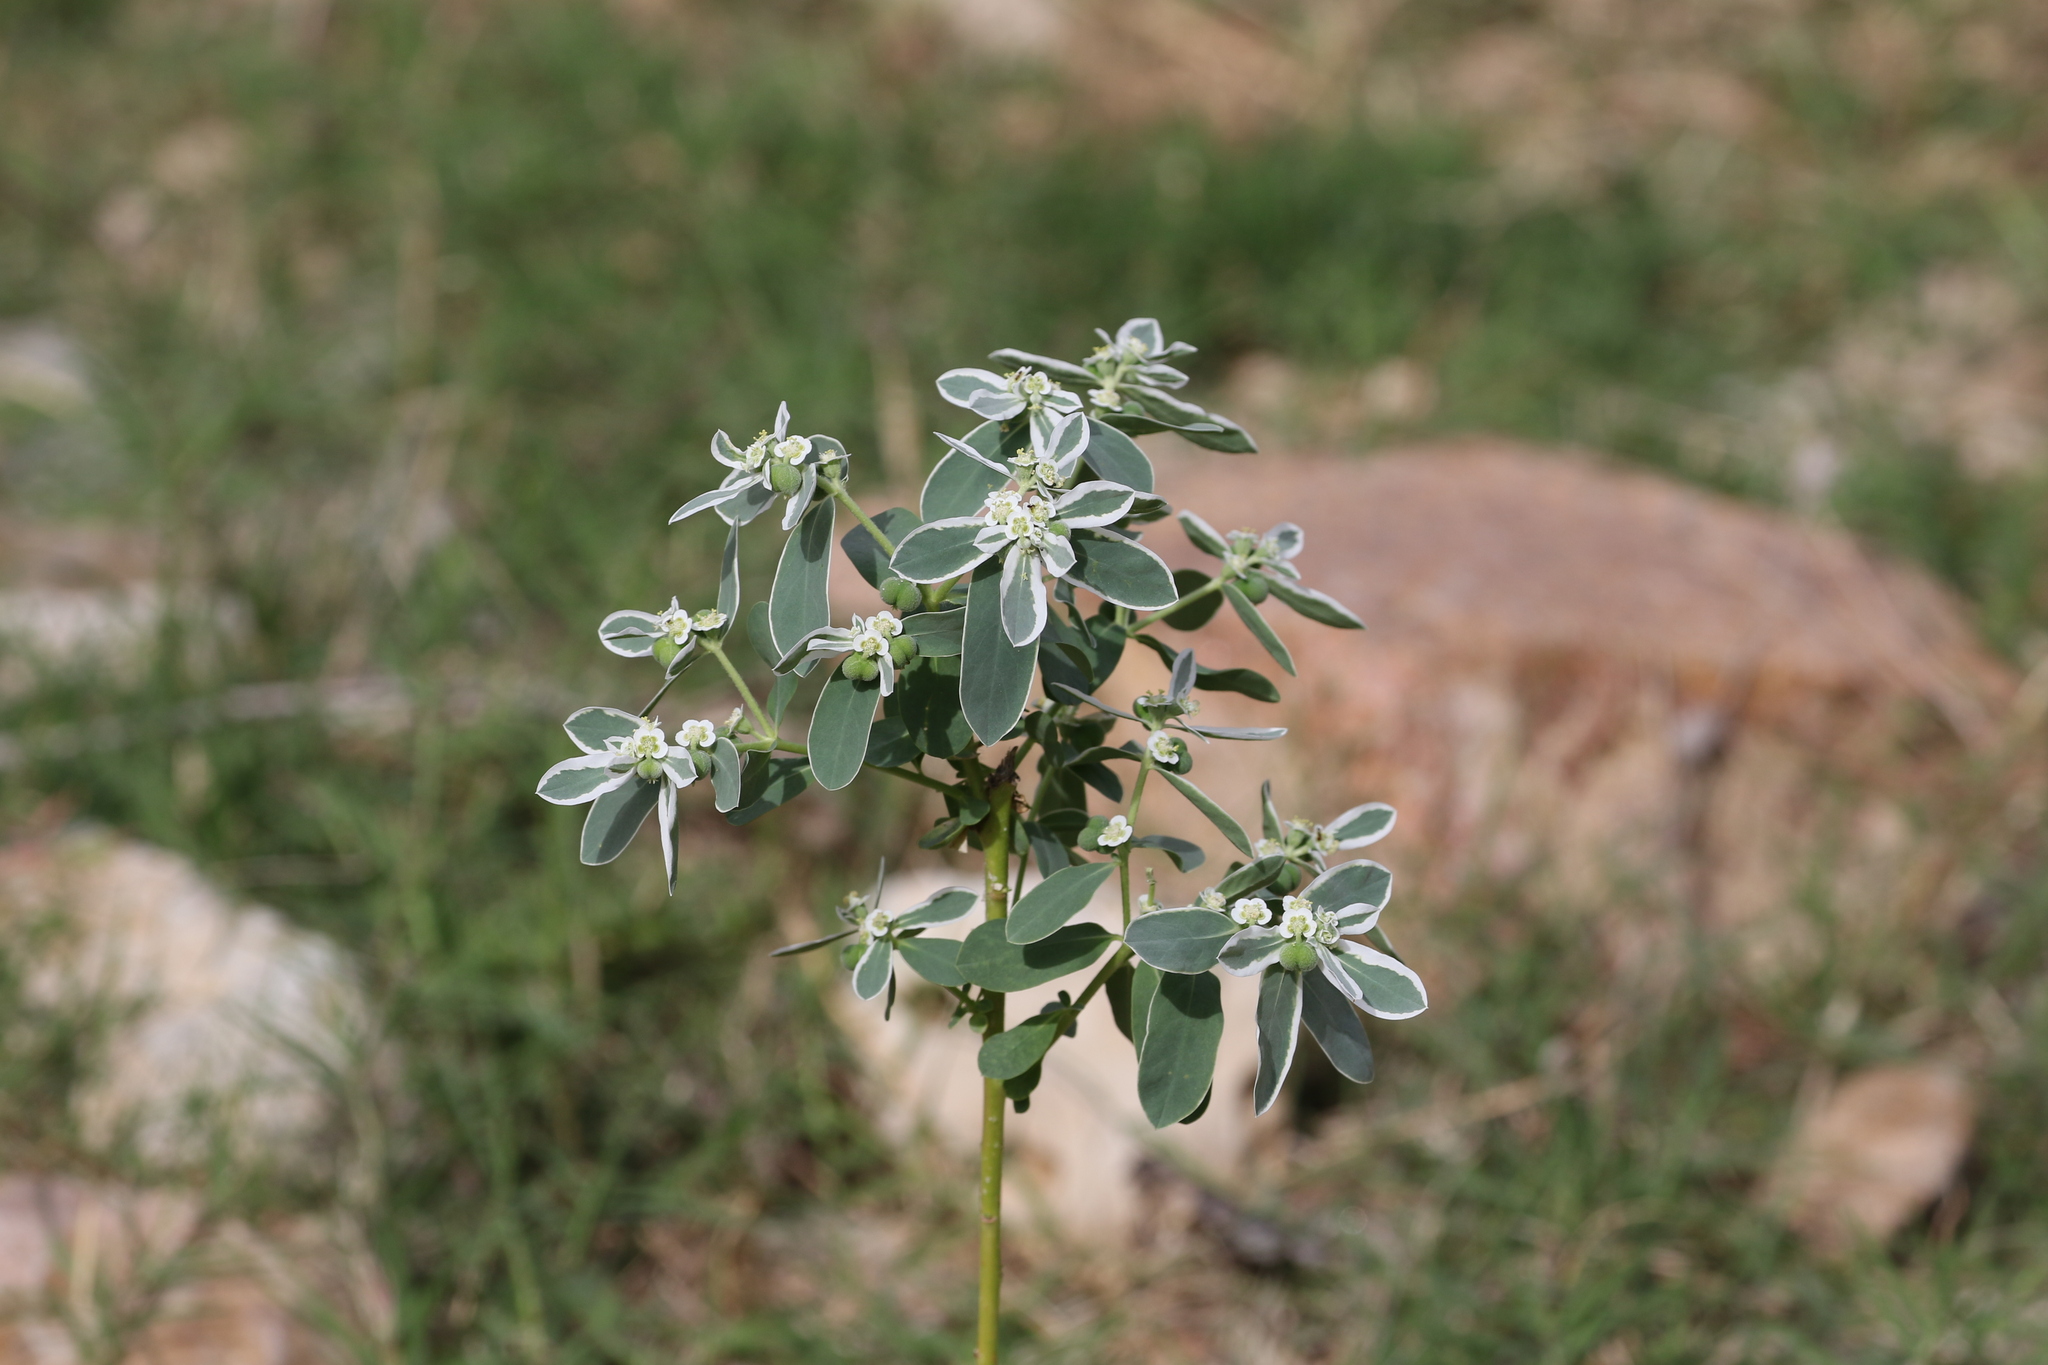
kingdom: Plantae
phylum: Tracheophyta
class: Magnoliopsida
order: Malpighiales
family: Euphorbiaceae
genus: Euphorbia
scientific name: Euphorbia marginata
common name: Ghostweed
